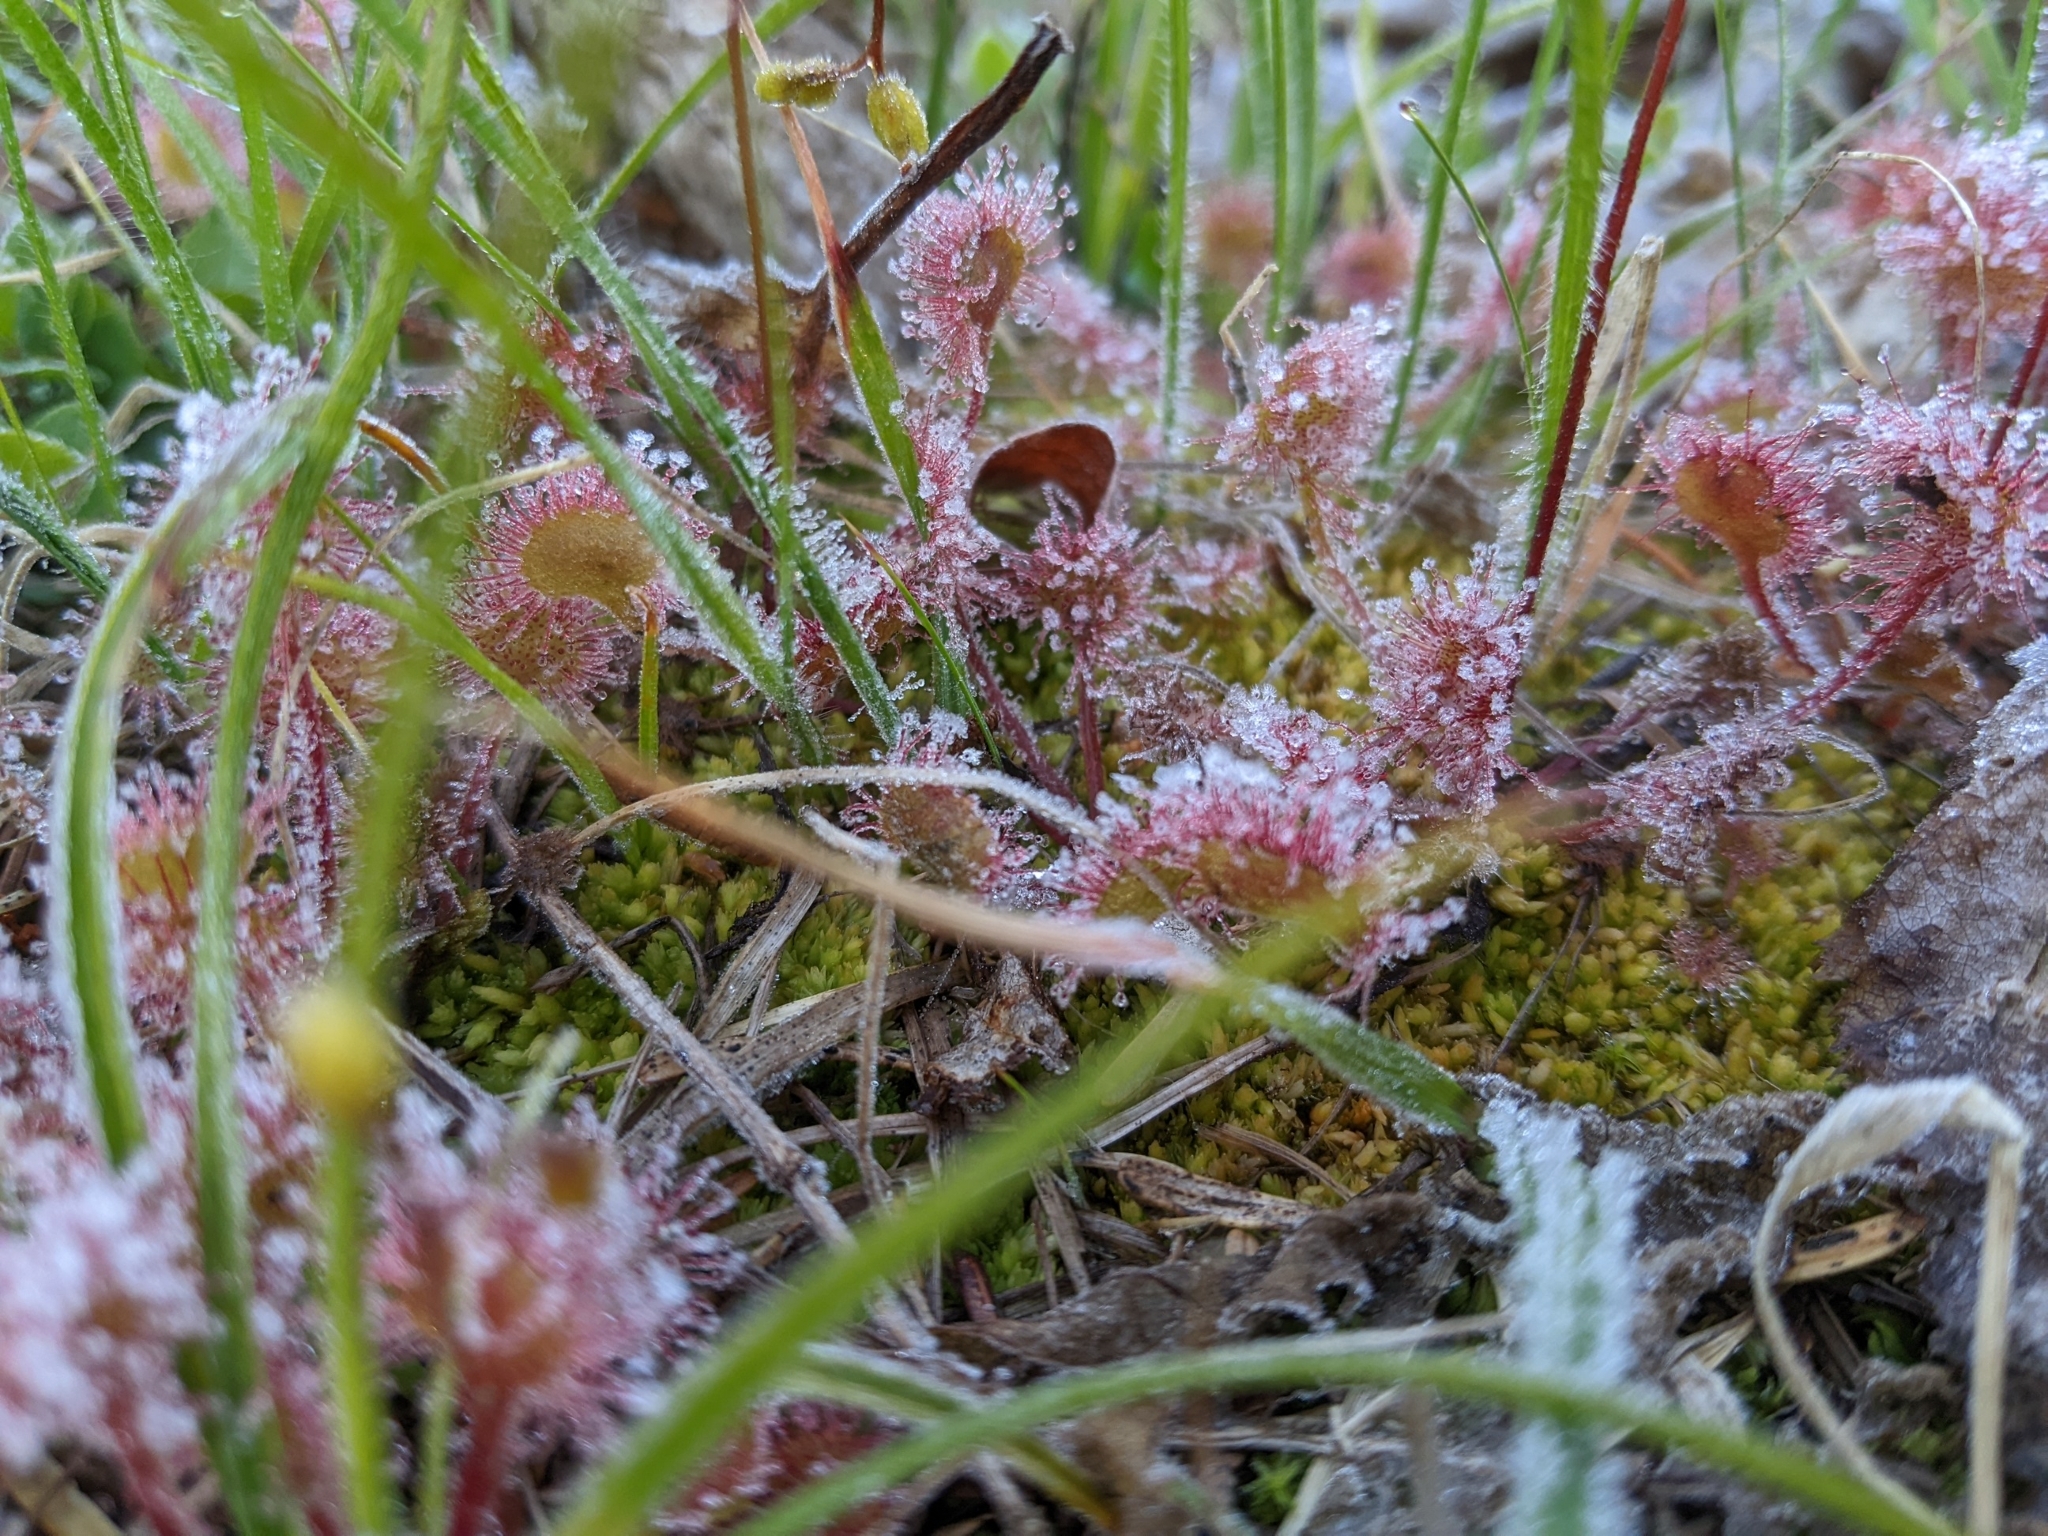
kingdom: Plantae
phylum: Tracheophyta
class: Magnoliopsida
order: Caryophyllales
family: Droseraceae
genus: Drosera
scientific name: Drosera rotundifolia
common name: Round-leaved sundew
